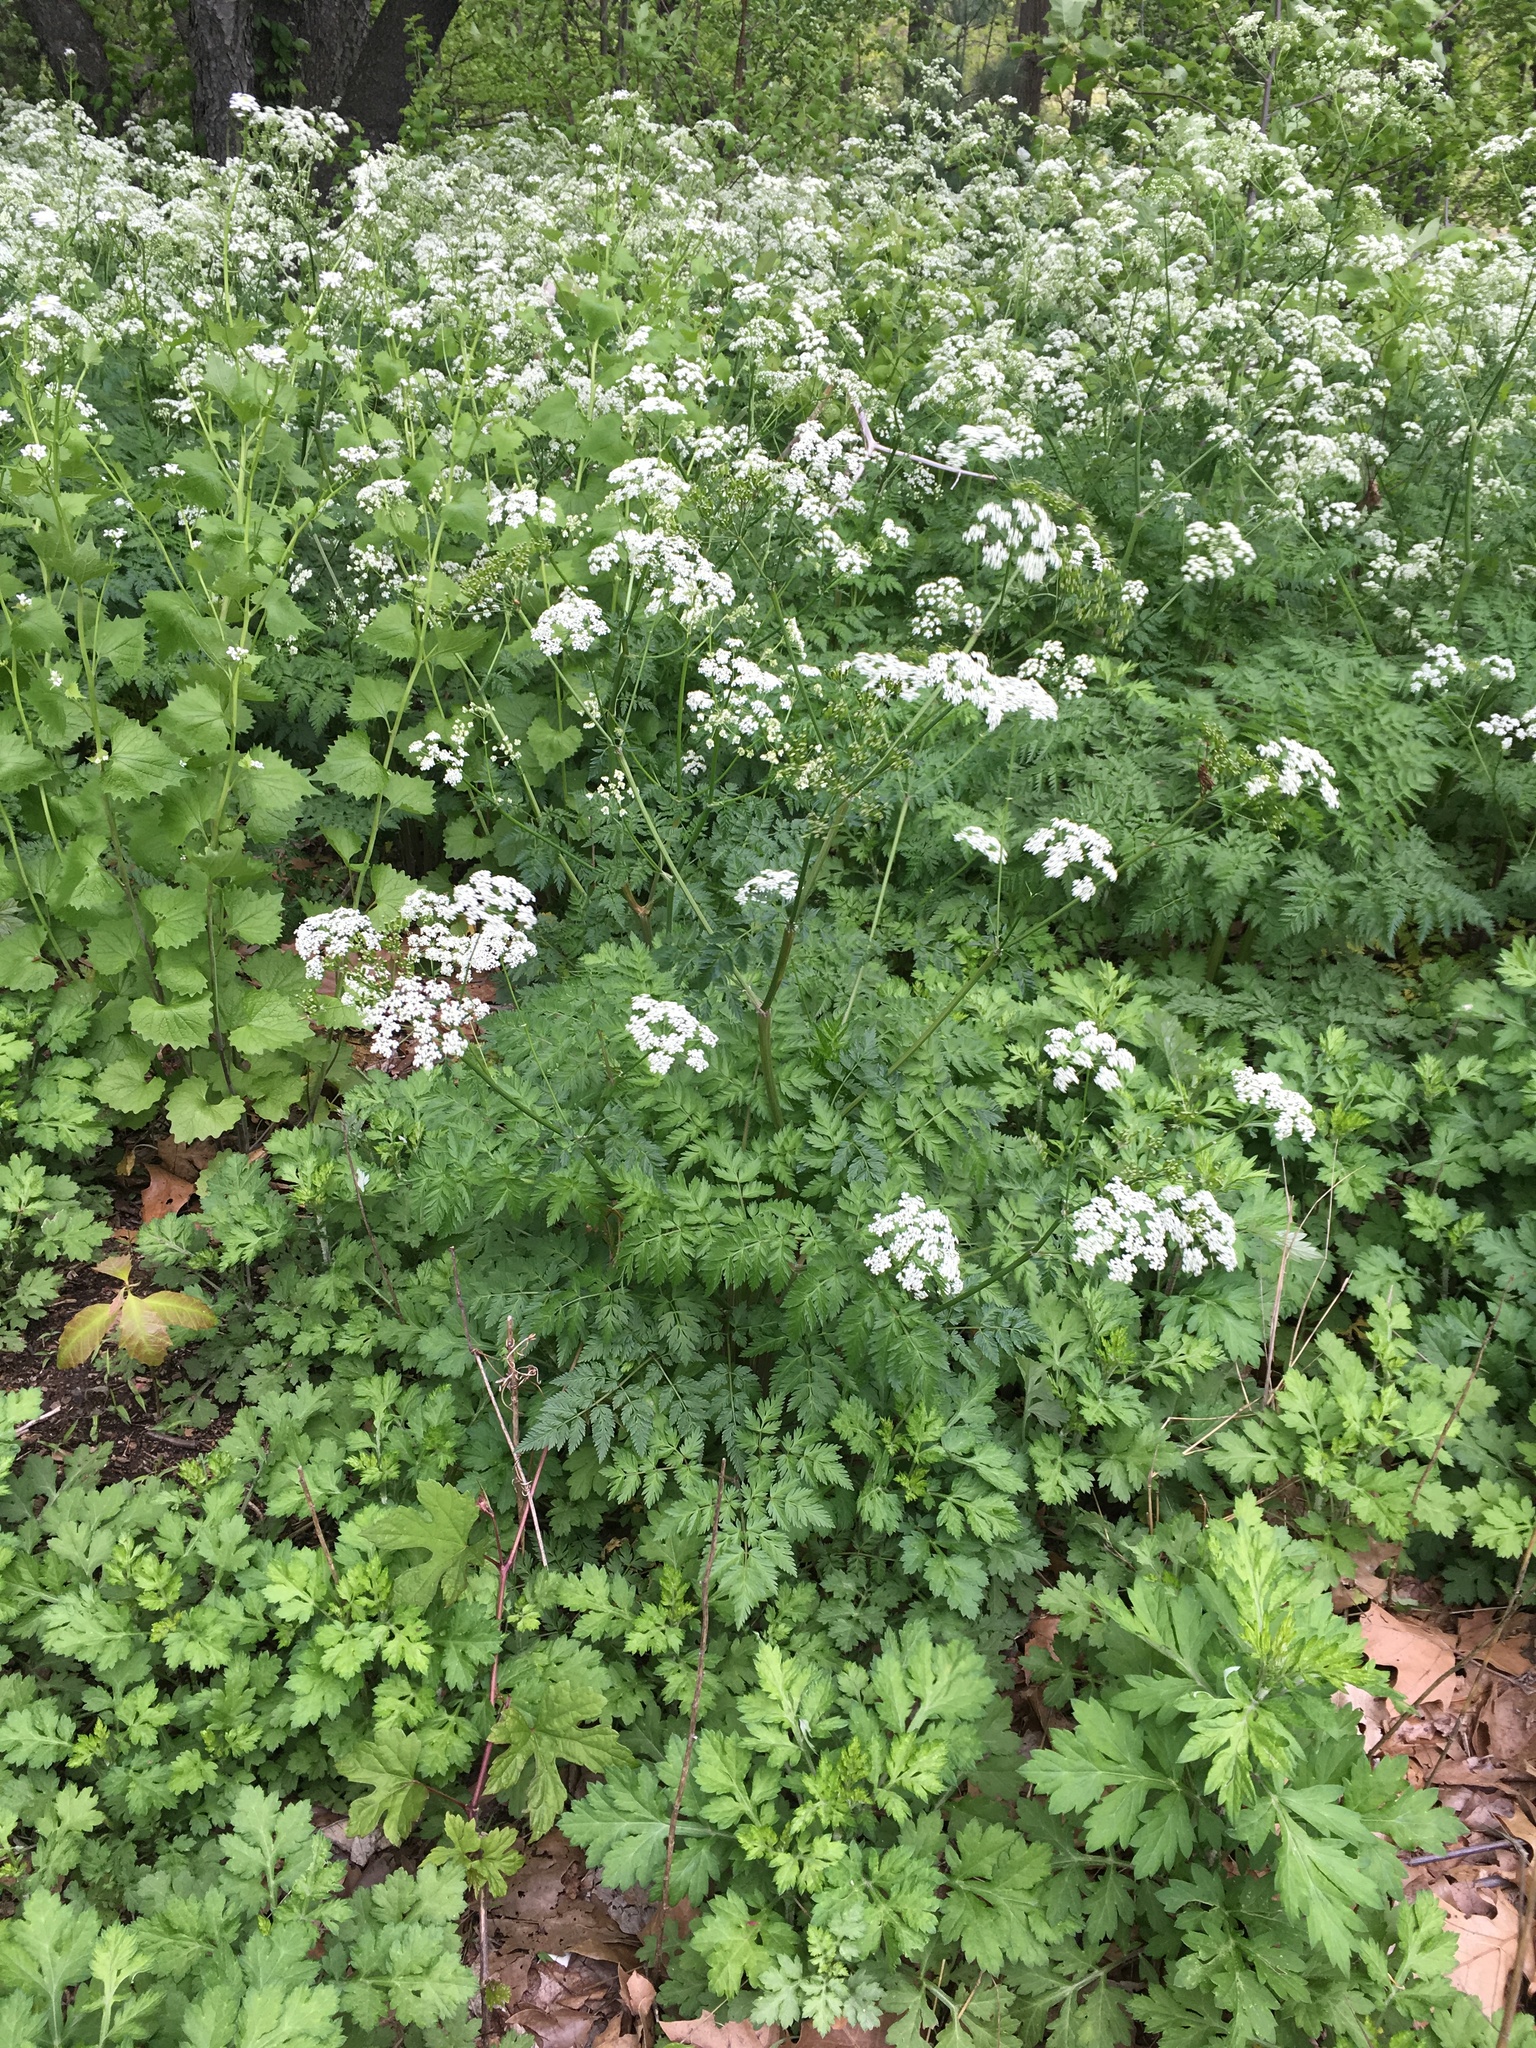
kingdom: Plantae
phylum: Tracheophyta
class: Magnoliopsida
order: Apiales
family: Apiaceae
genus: Anthriscus
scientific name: Anthriscus sylvestris
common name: Cow parsley
